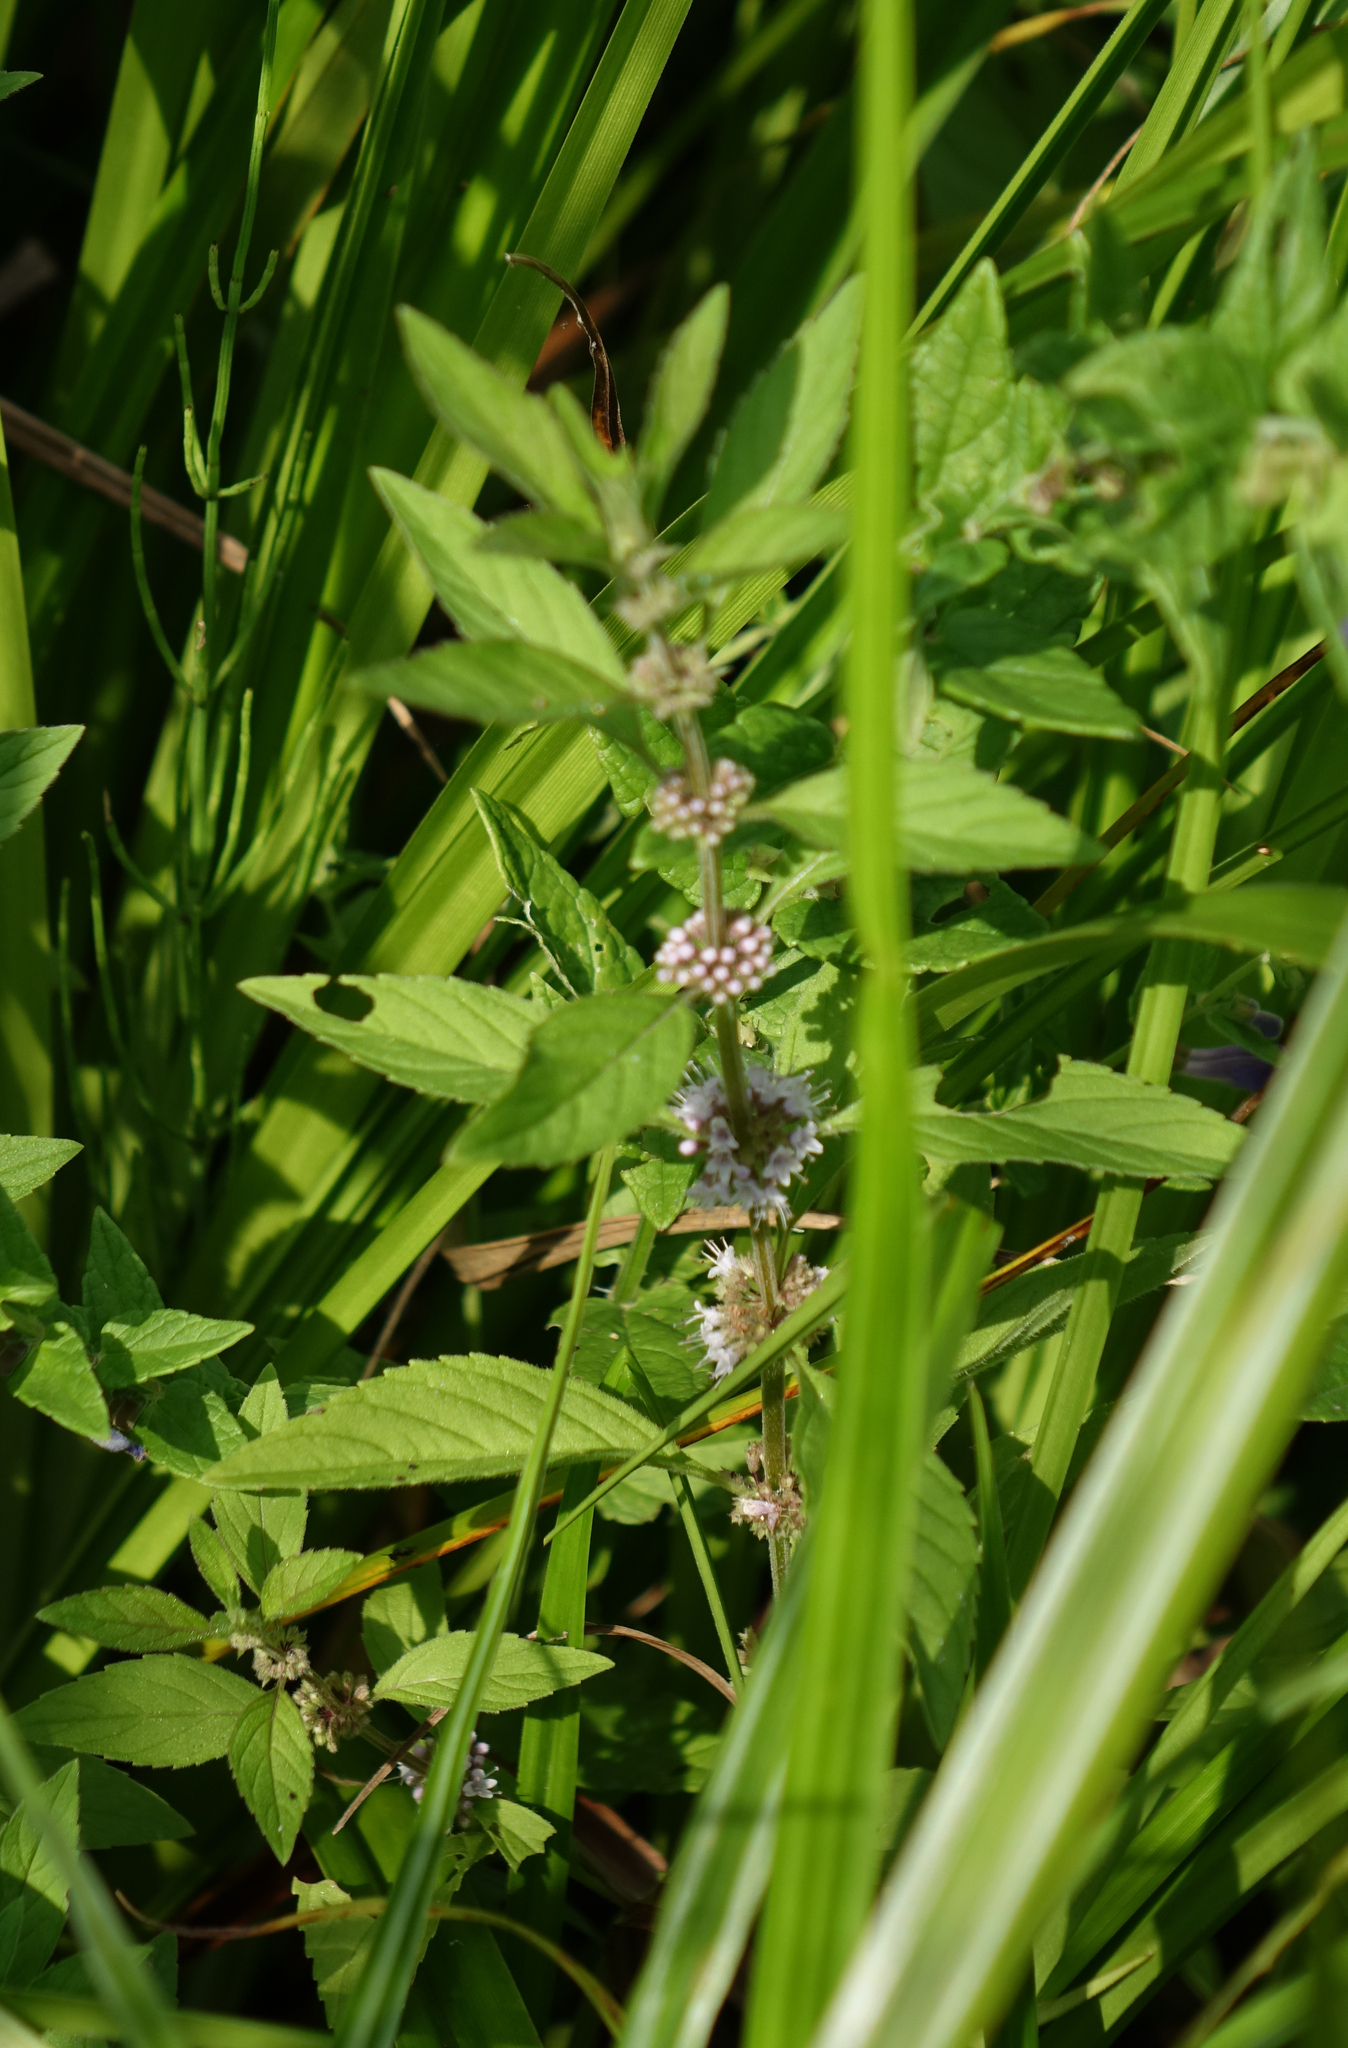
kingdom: Plantae
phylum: Tracheophyta
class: Magnoliopsida
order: Lamiales
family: Lamiaceae
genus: Mentha
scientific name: Mentha arvensis
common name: Corn mint
